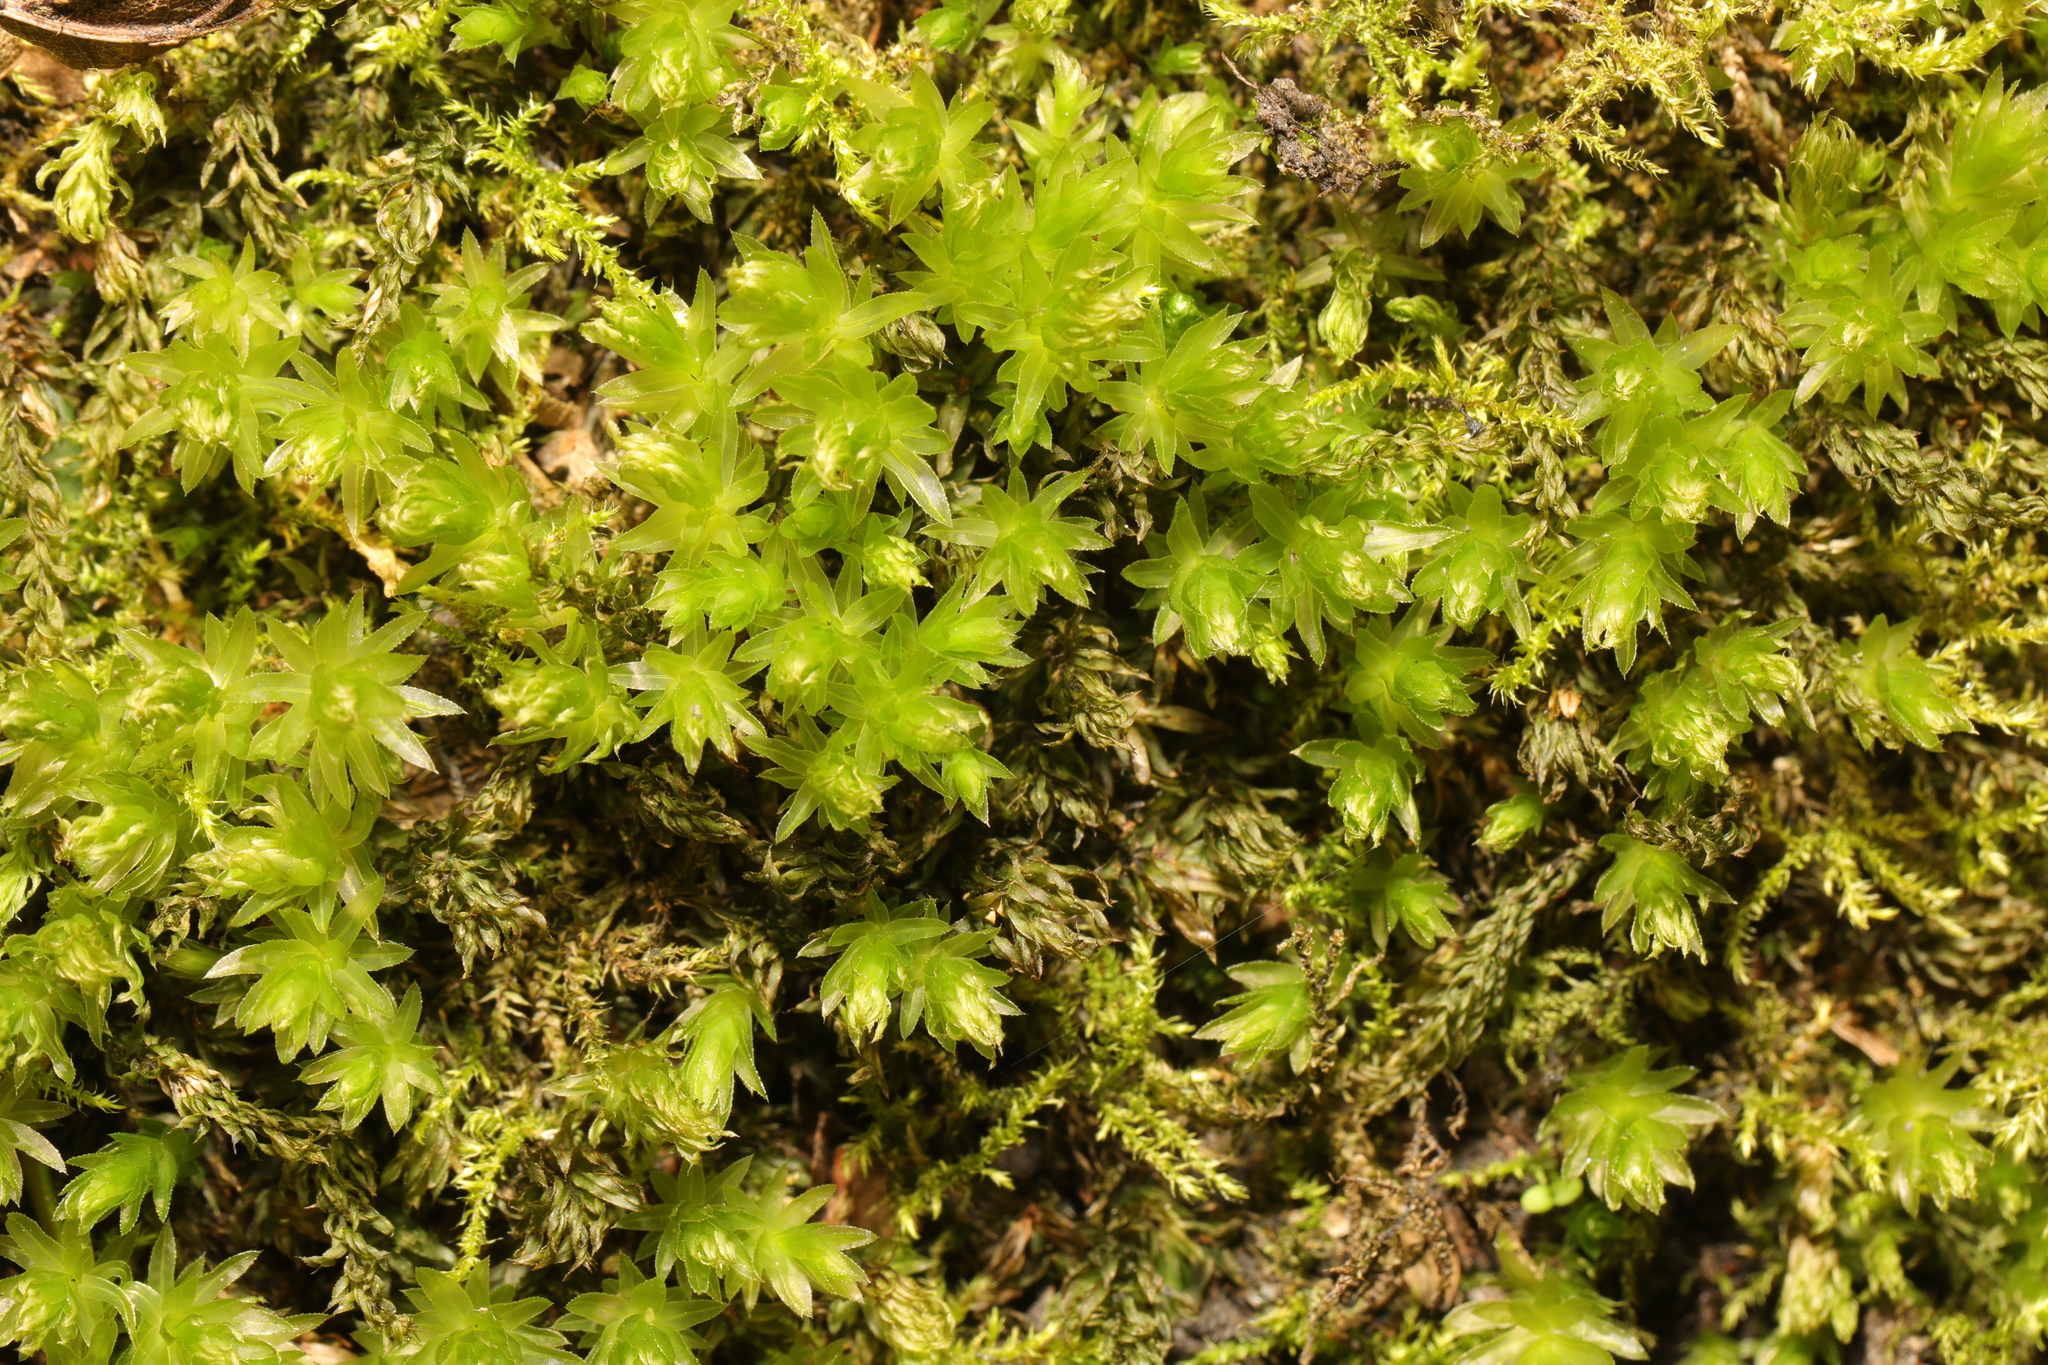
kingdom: Plantae
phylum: Bryophyta
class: Bryopsida
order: Bryales
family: Mniaceae
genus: Mnium
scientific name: Mnium hornum
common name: Swan's-neck leafy moss
